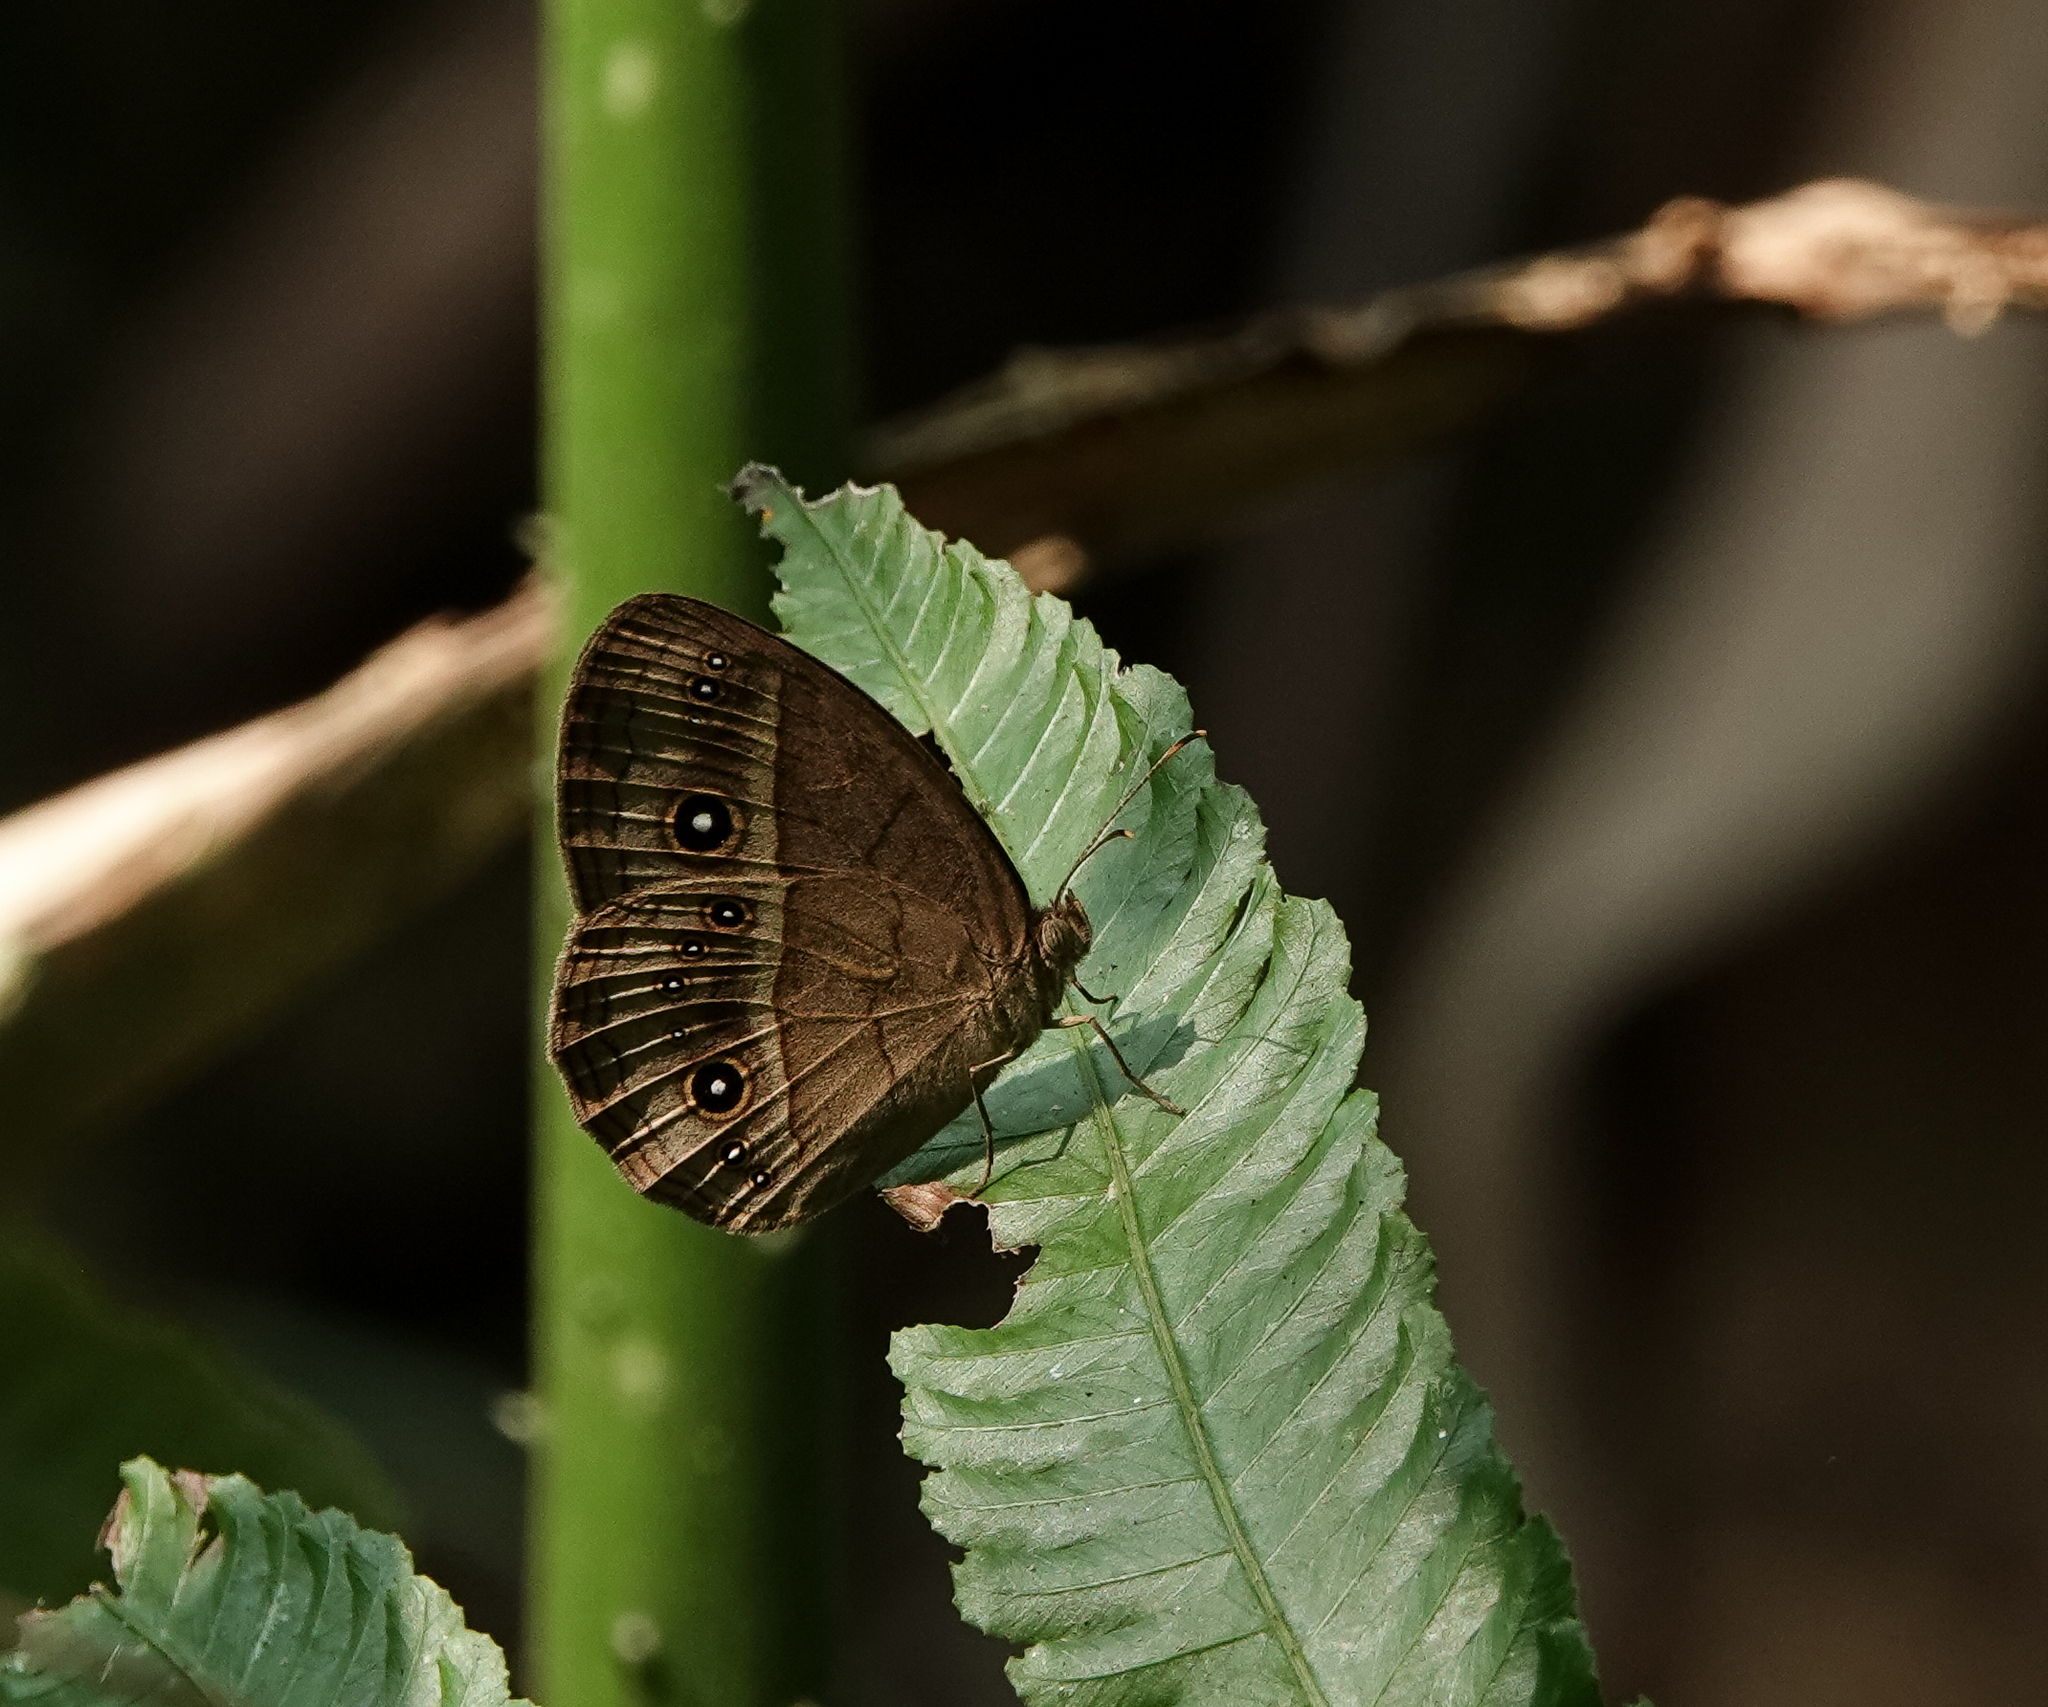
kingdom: Animalia
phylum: Arthropoda
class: Insecta
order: Lepidoptera
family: Nymphalidae
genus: Mycalesis
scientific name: Mycalesis gotama
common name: Chinese bushbrown
